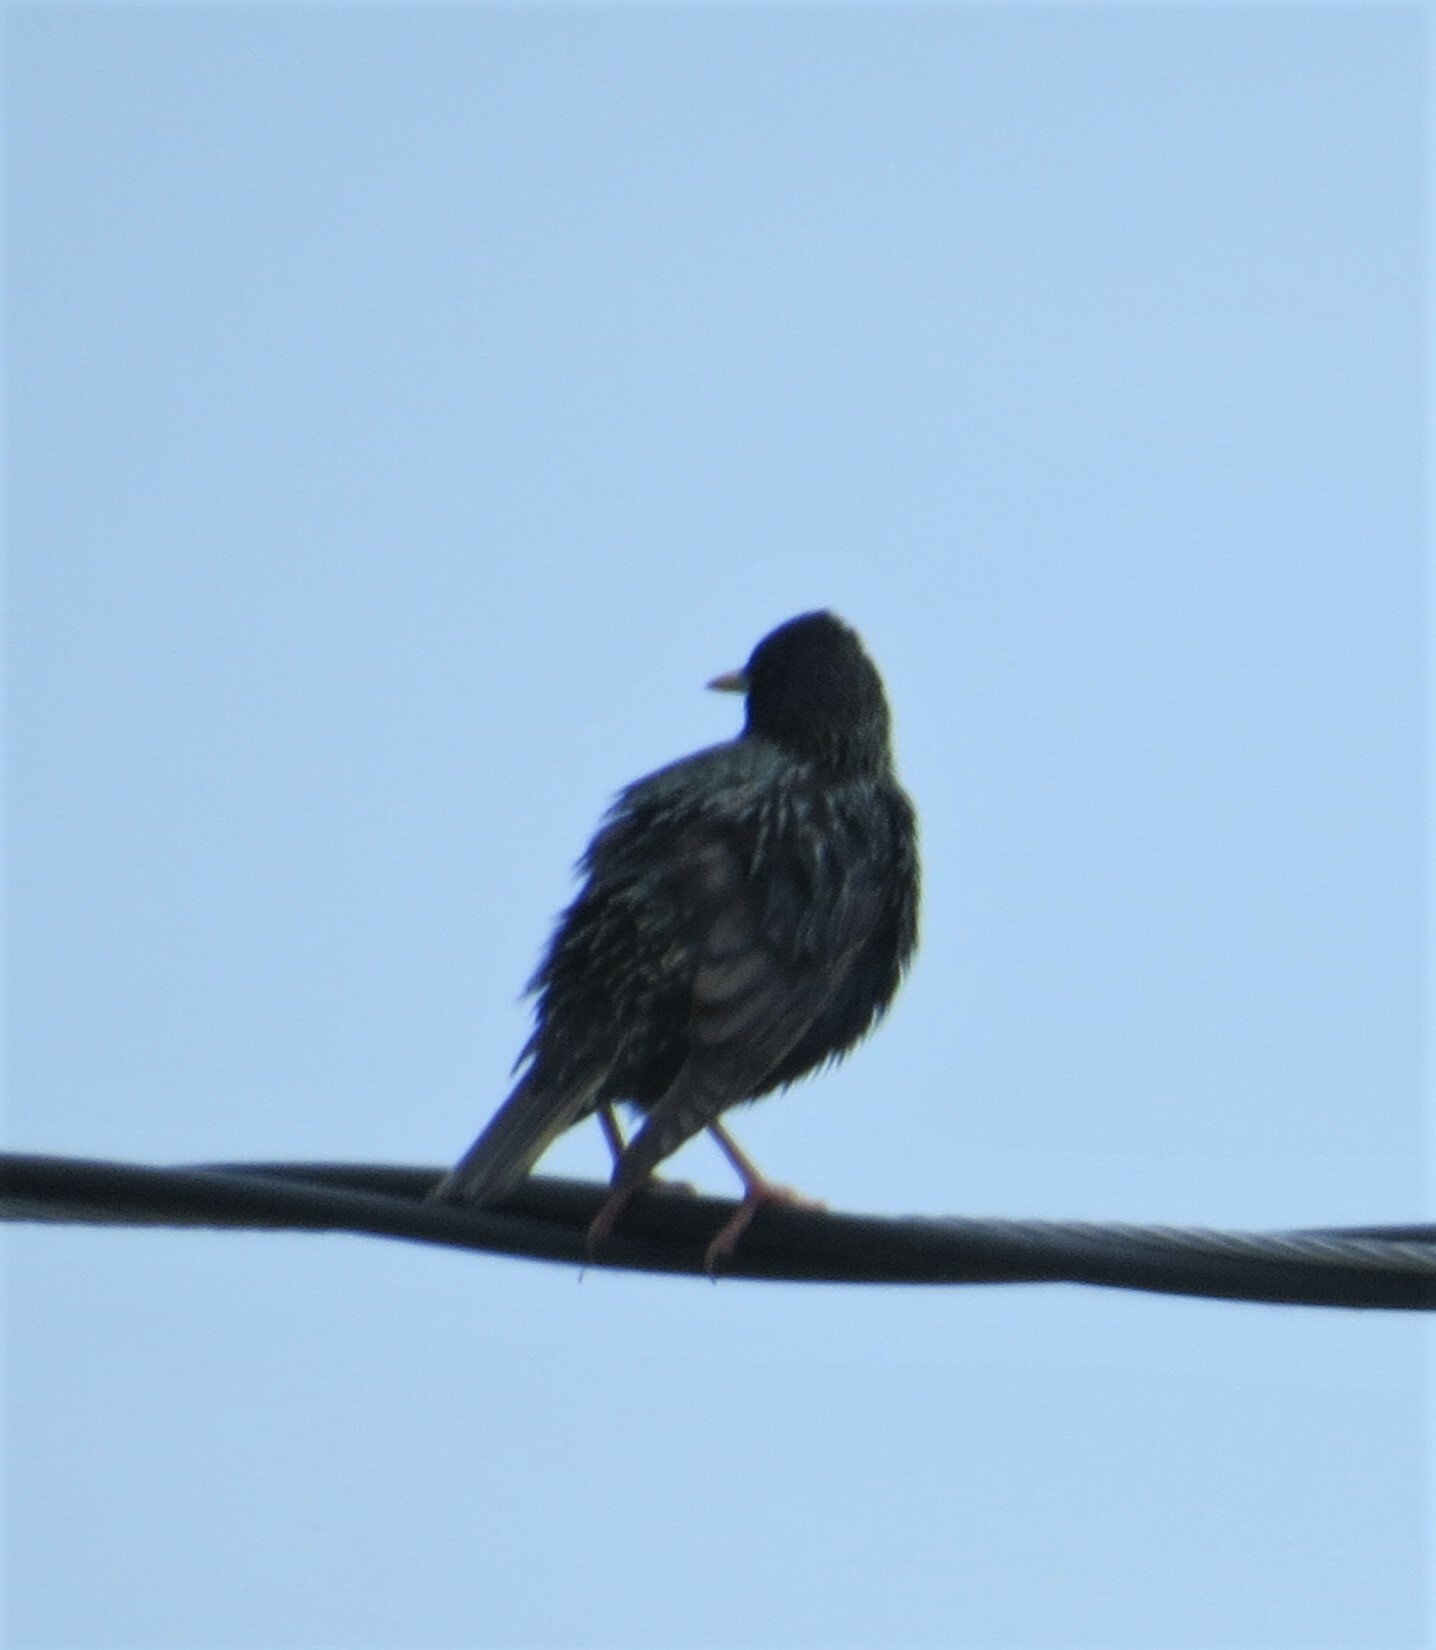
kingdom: Animalia
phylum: Chordata
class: Aves
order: Passeriformes
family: Sturnidae
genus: Sturnus
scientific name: Sturnus vulgaris
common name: Common starling
